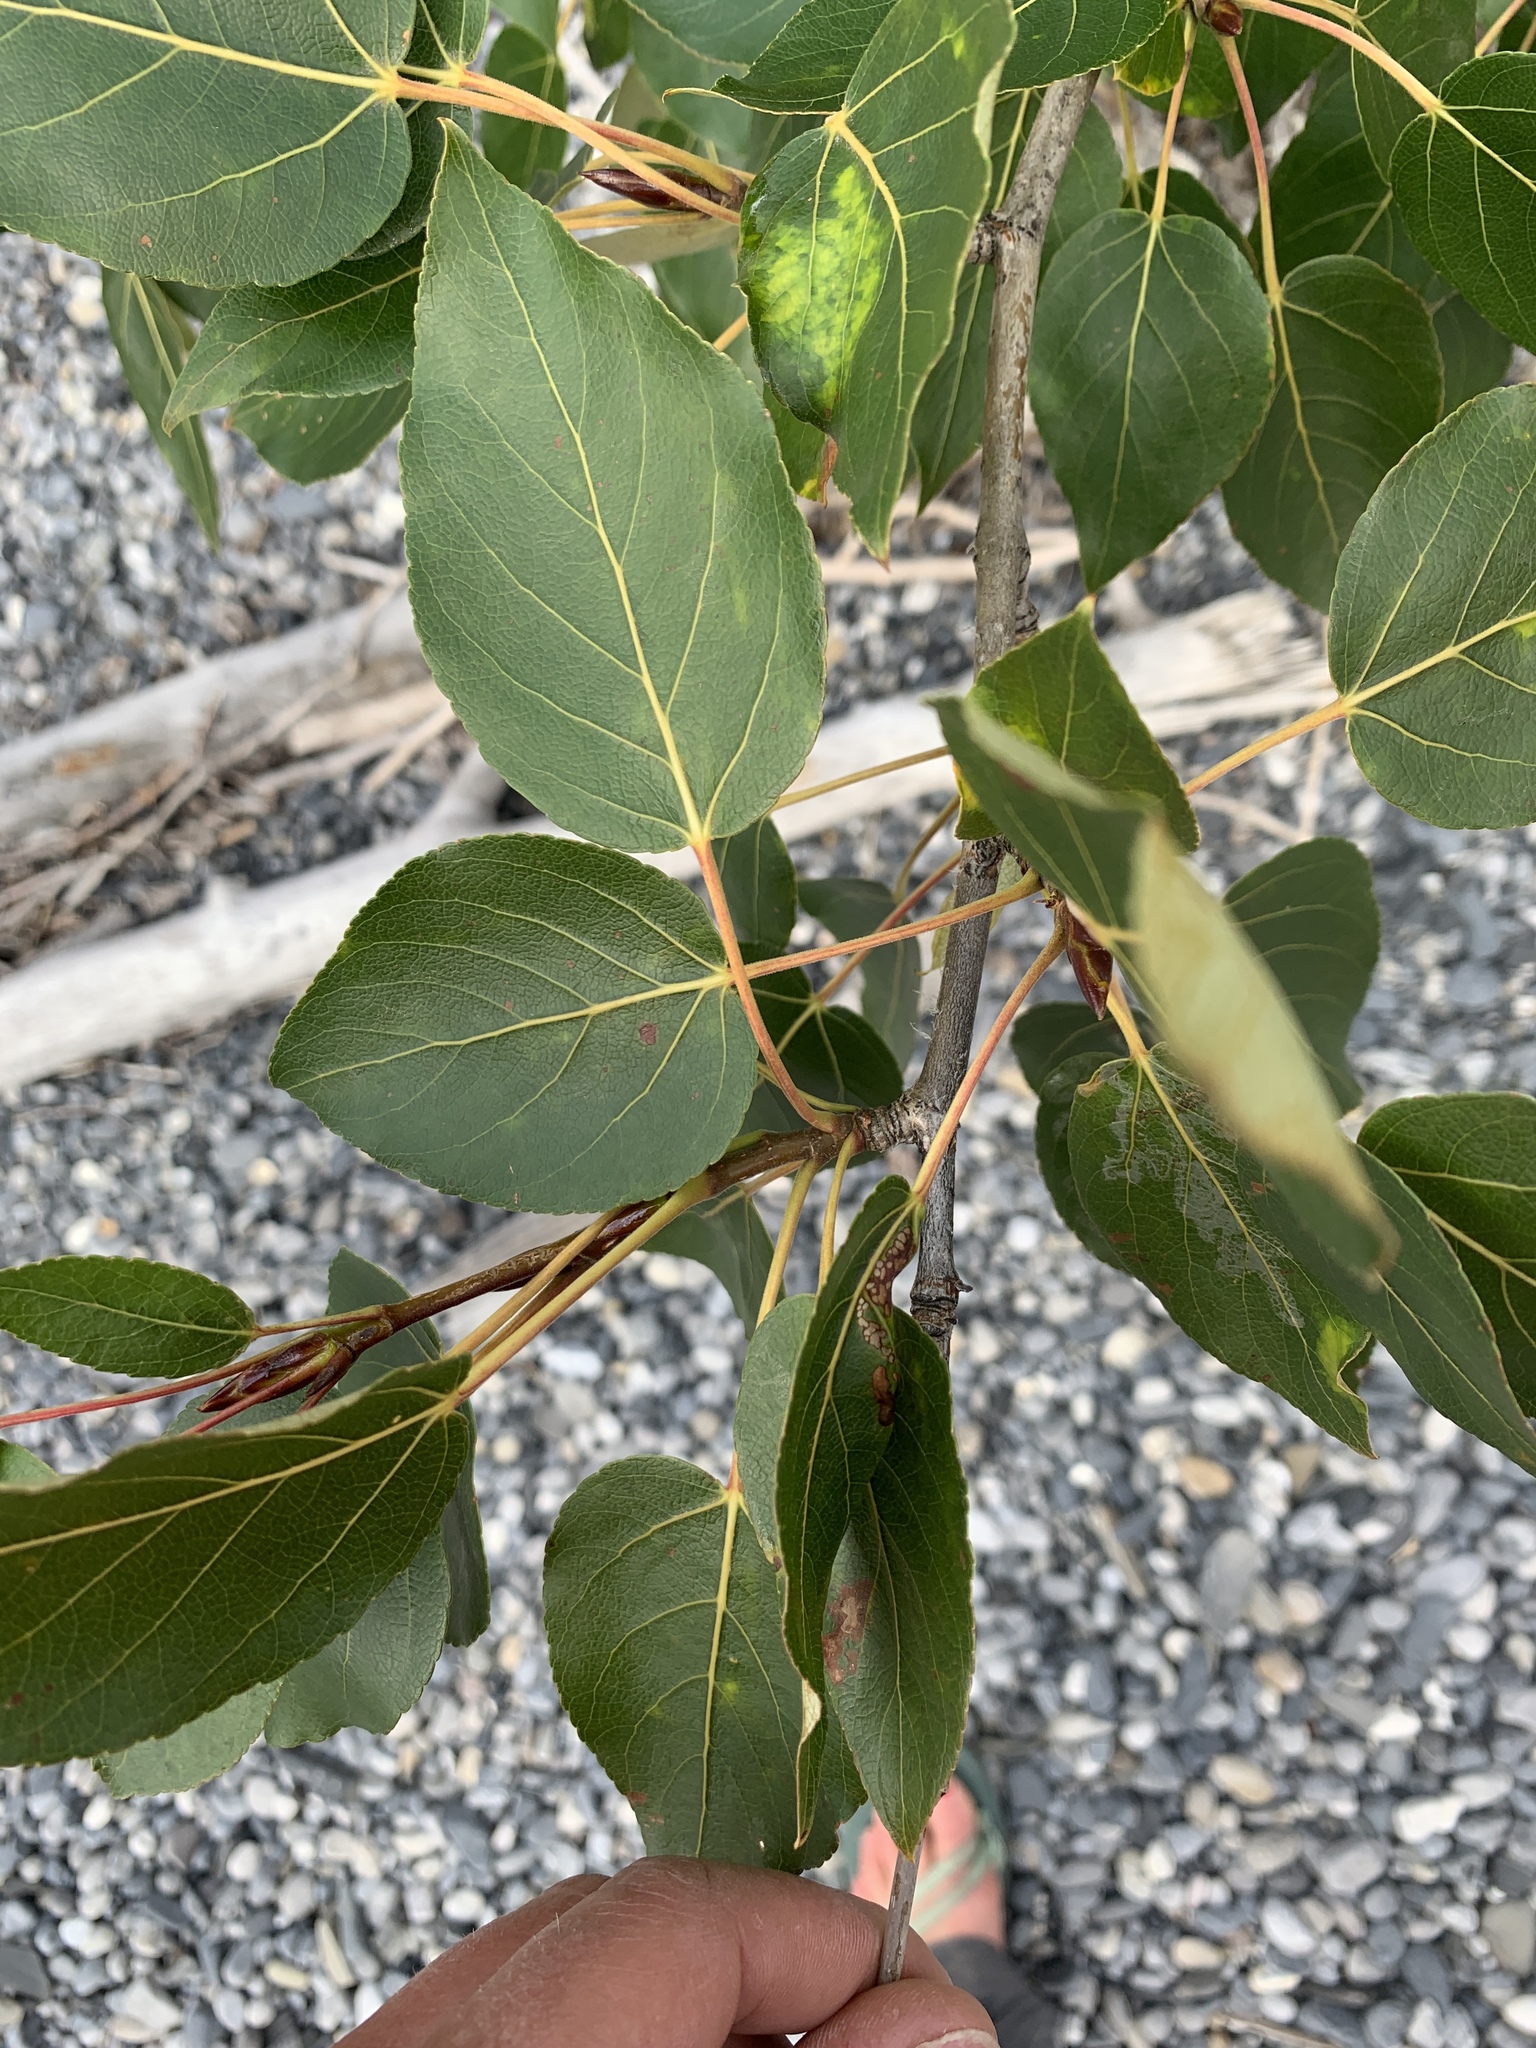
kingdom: Plantae
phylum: Tracheophyta
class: Magnoliopsida
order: Malpighiales
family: Salicaceae
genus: Populus
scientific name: Populus balsamifera
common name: Balsam poplar
